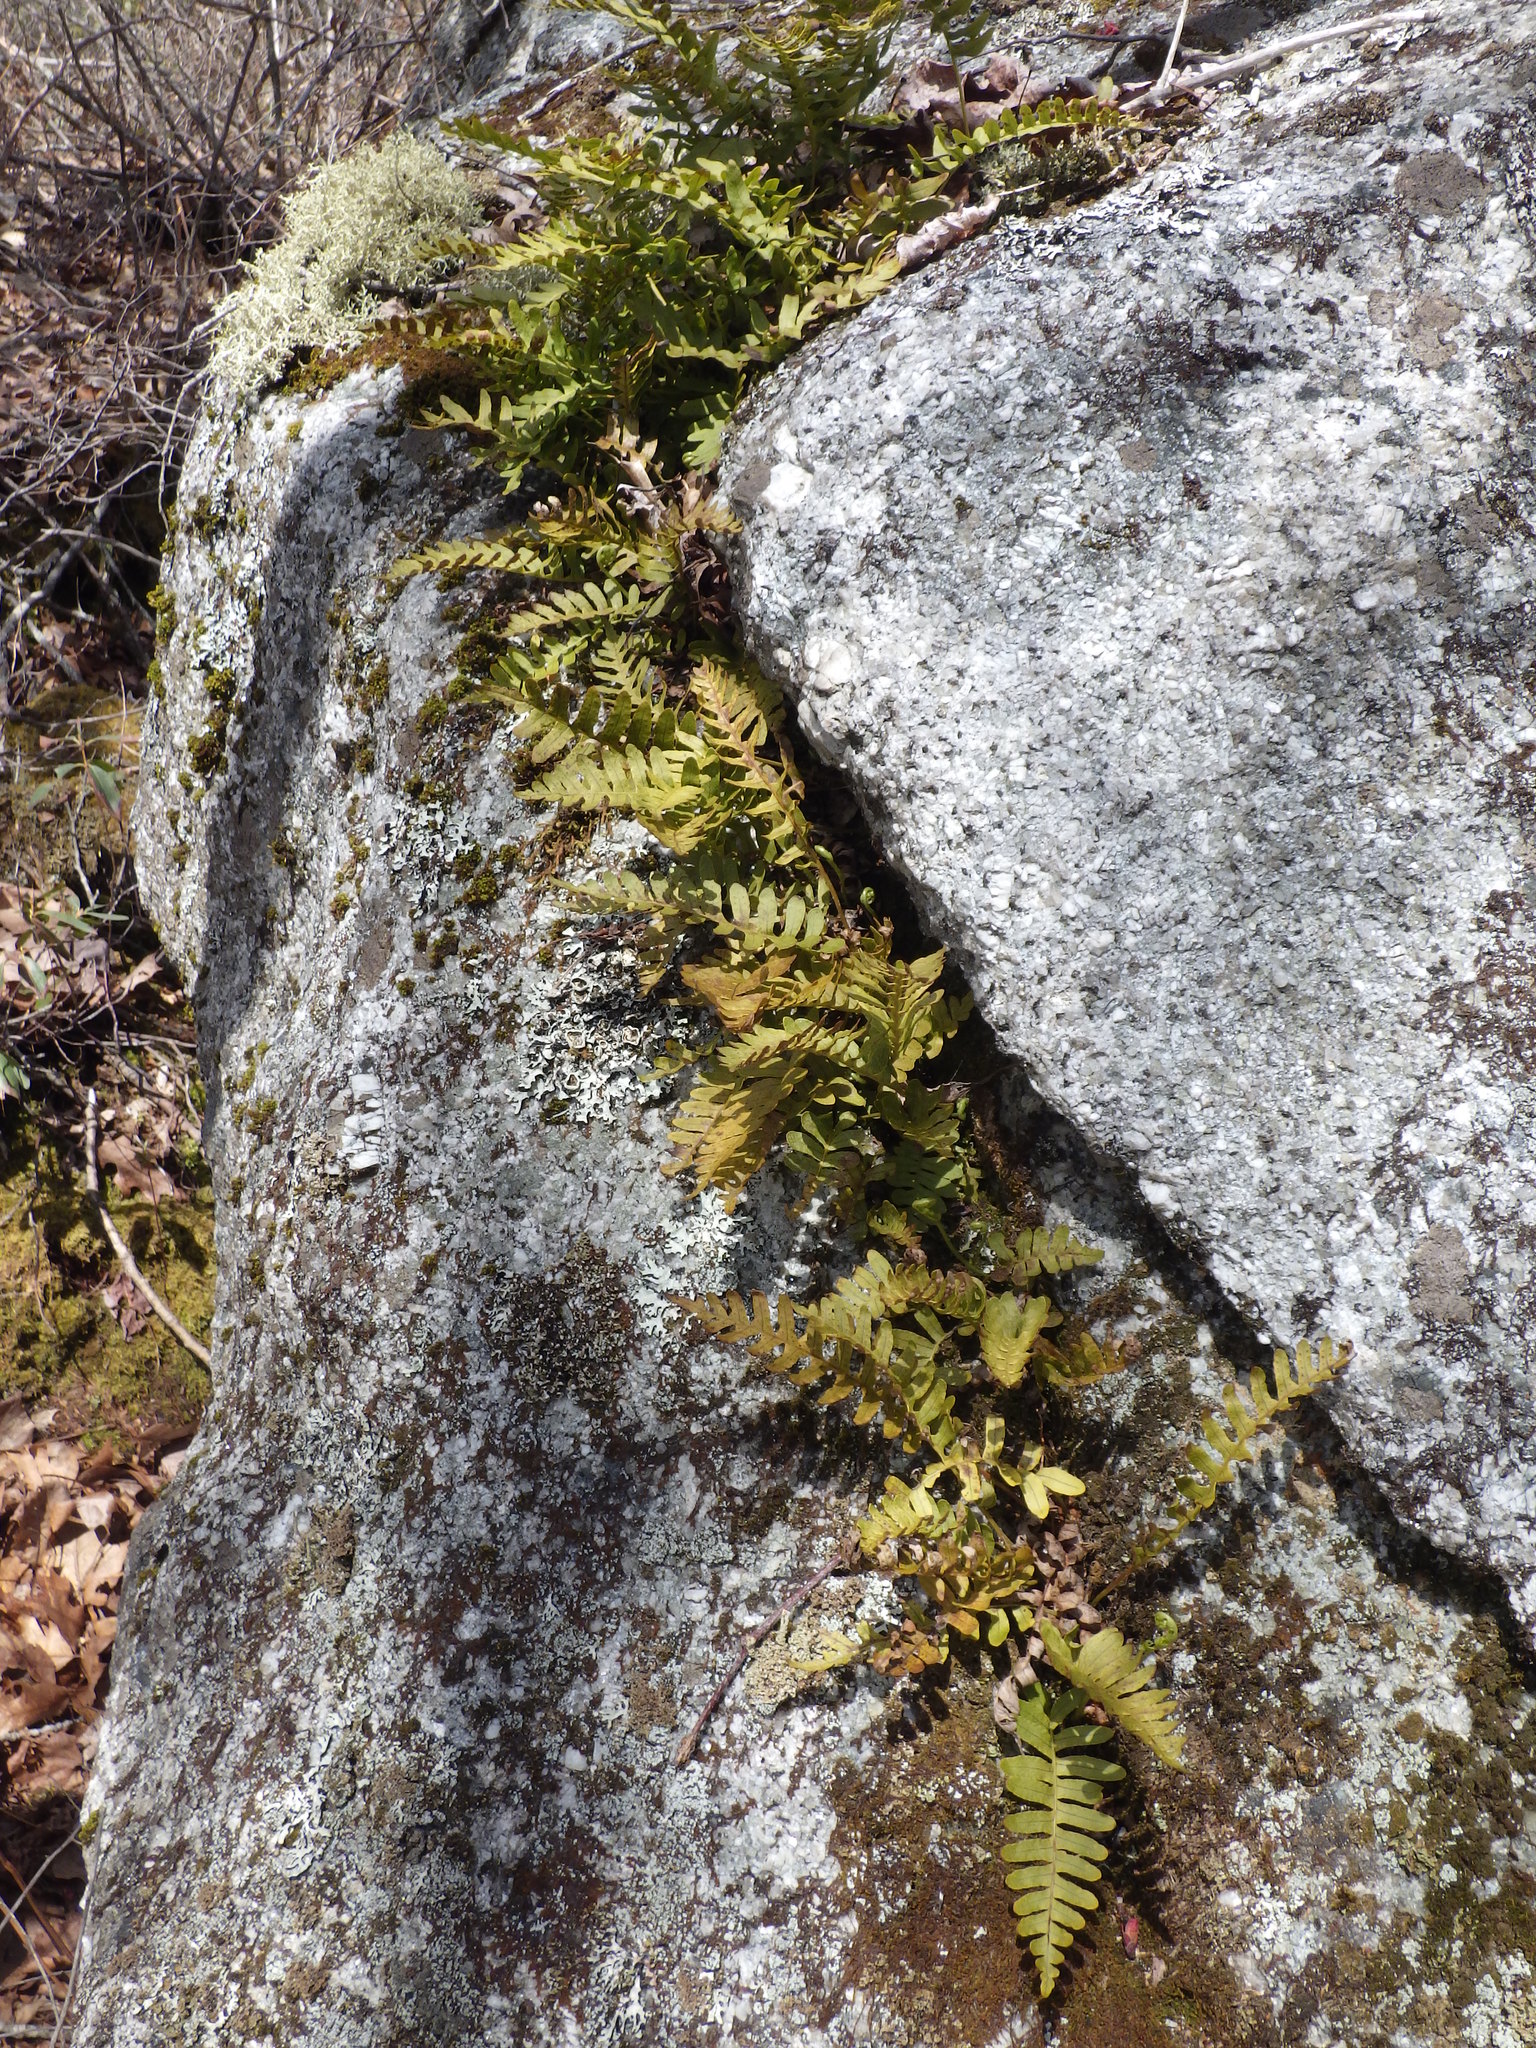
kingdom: Plantae
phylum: Tracheophyta
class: Polypodiopsida
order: Polypodiales
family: Polypodiaceae
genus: Polypodium
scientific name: Polypodium virginianum
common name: American wall fern
